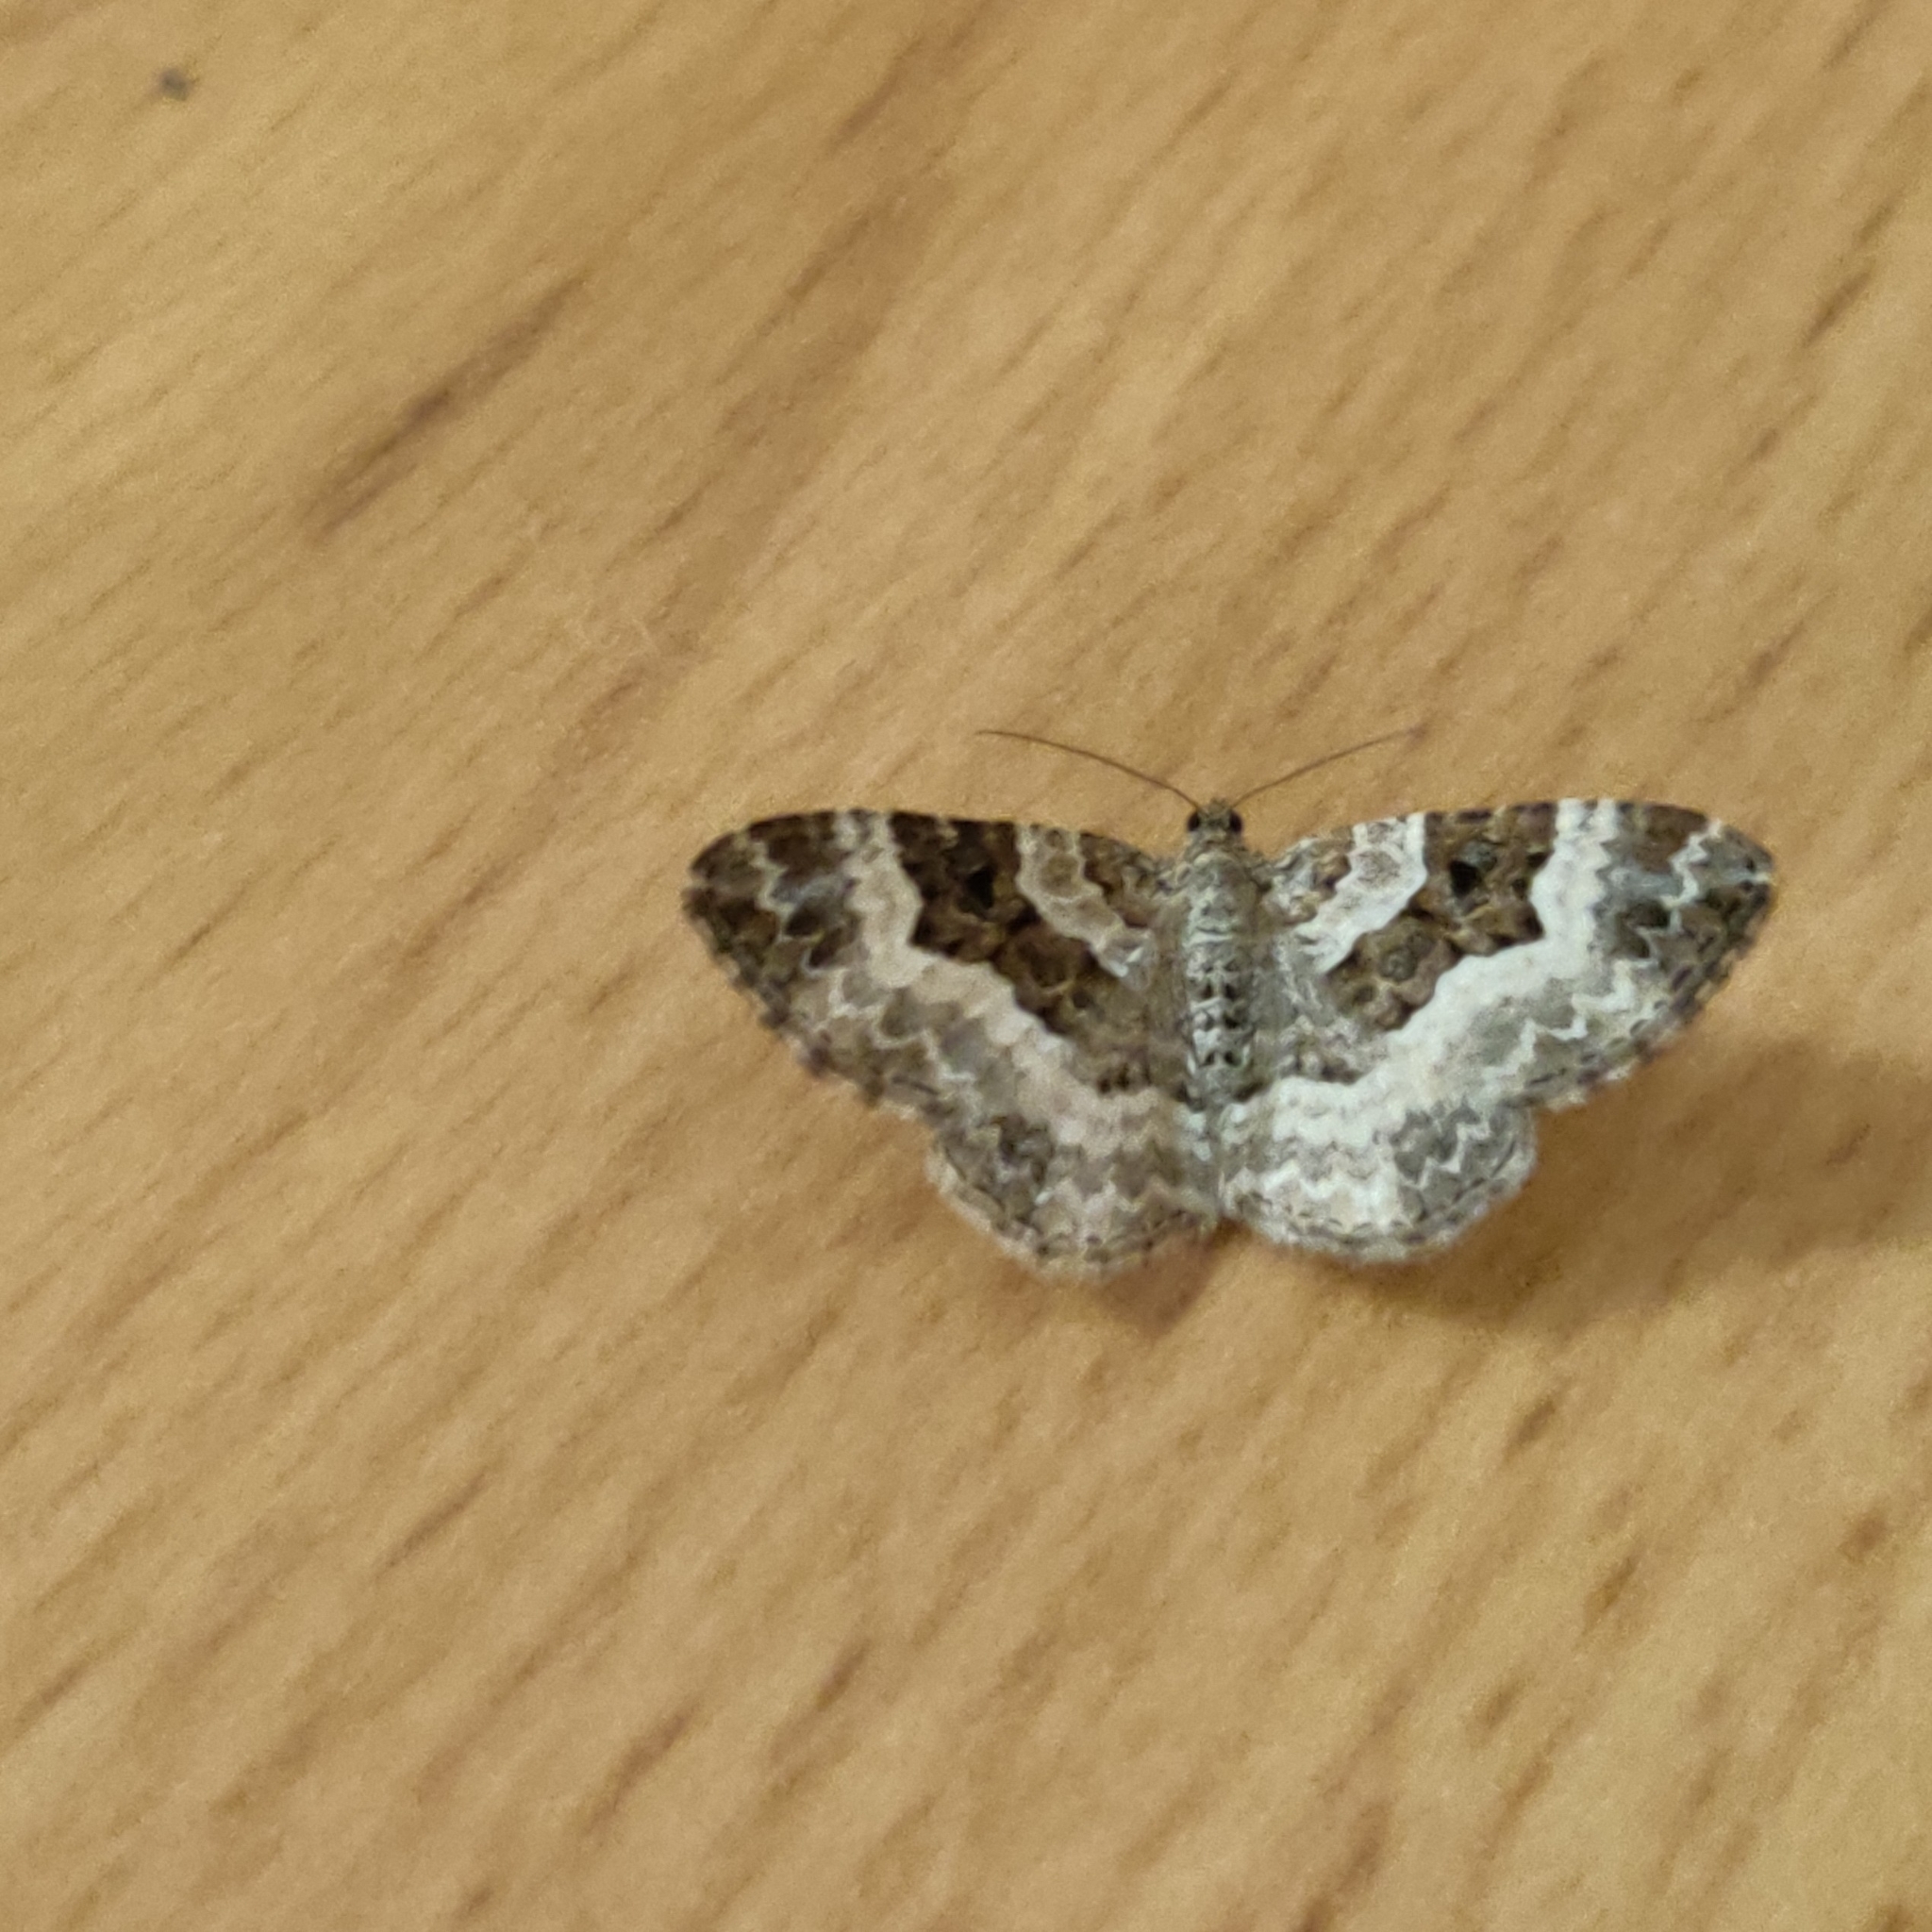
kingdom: Animalia
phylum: Arthropoda
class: Insecta
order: Lepidoptera
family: Geometridae
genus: Epirrhoe
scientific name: Epirrhoe alternata
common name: Common carpet
